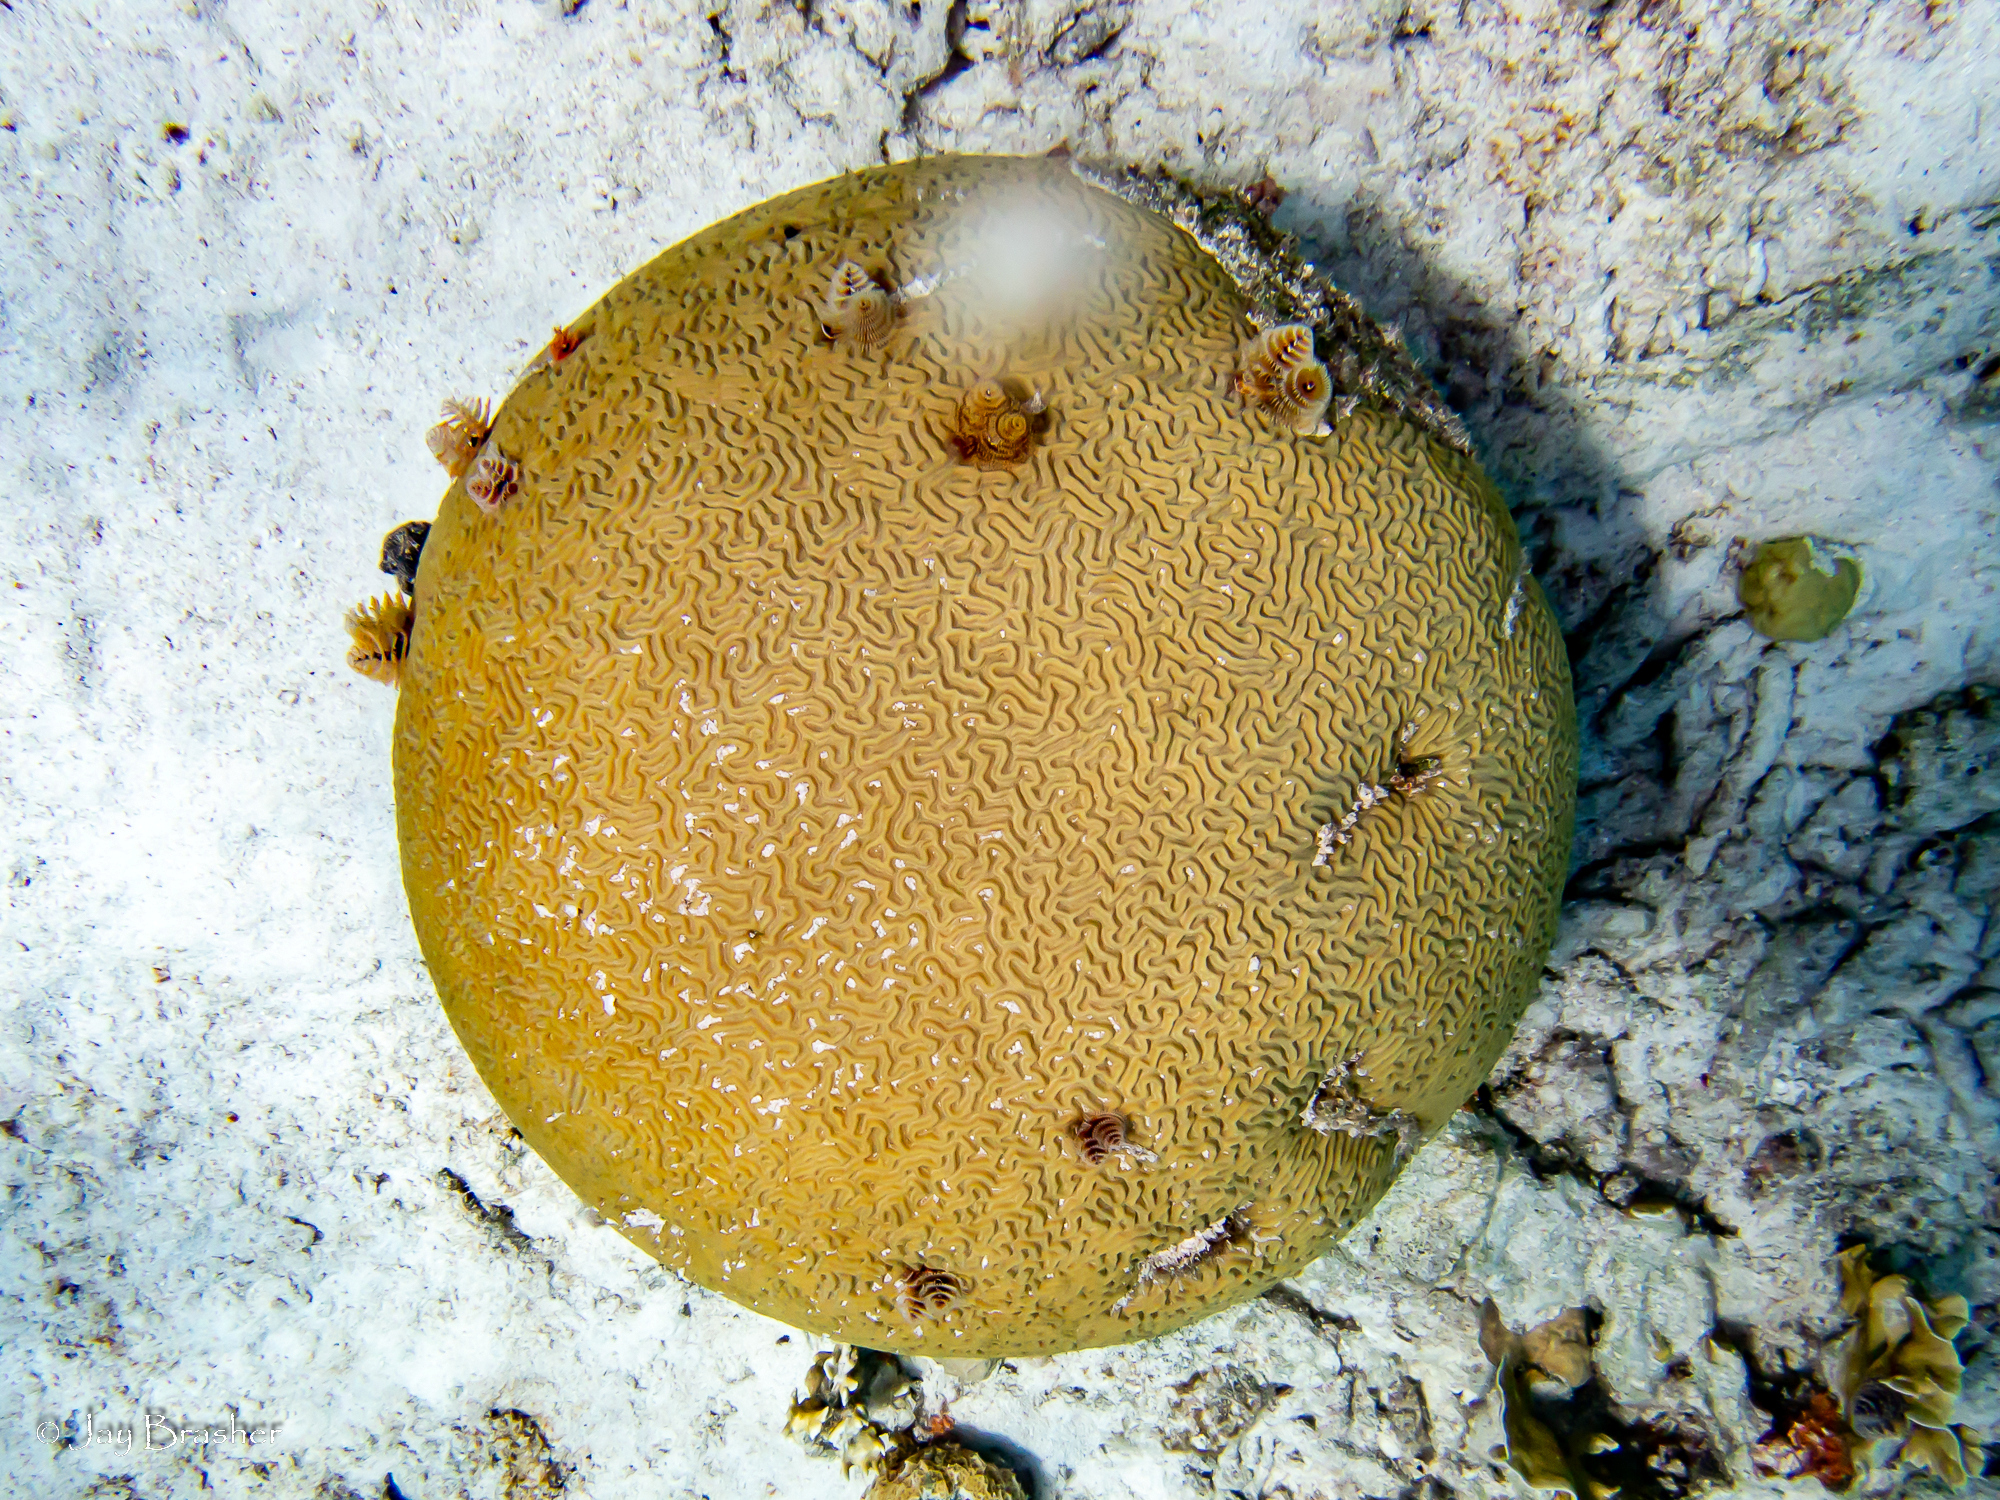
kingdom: Animalia
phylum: Cnidaria
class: Anthozoa
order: Scleractinia
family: Faviidae
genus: Pseudodiploria
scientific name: Pseudodiploria strigosa
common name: Symmetrical brain coral
